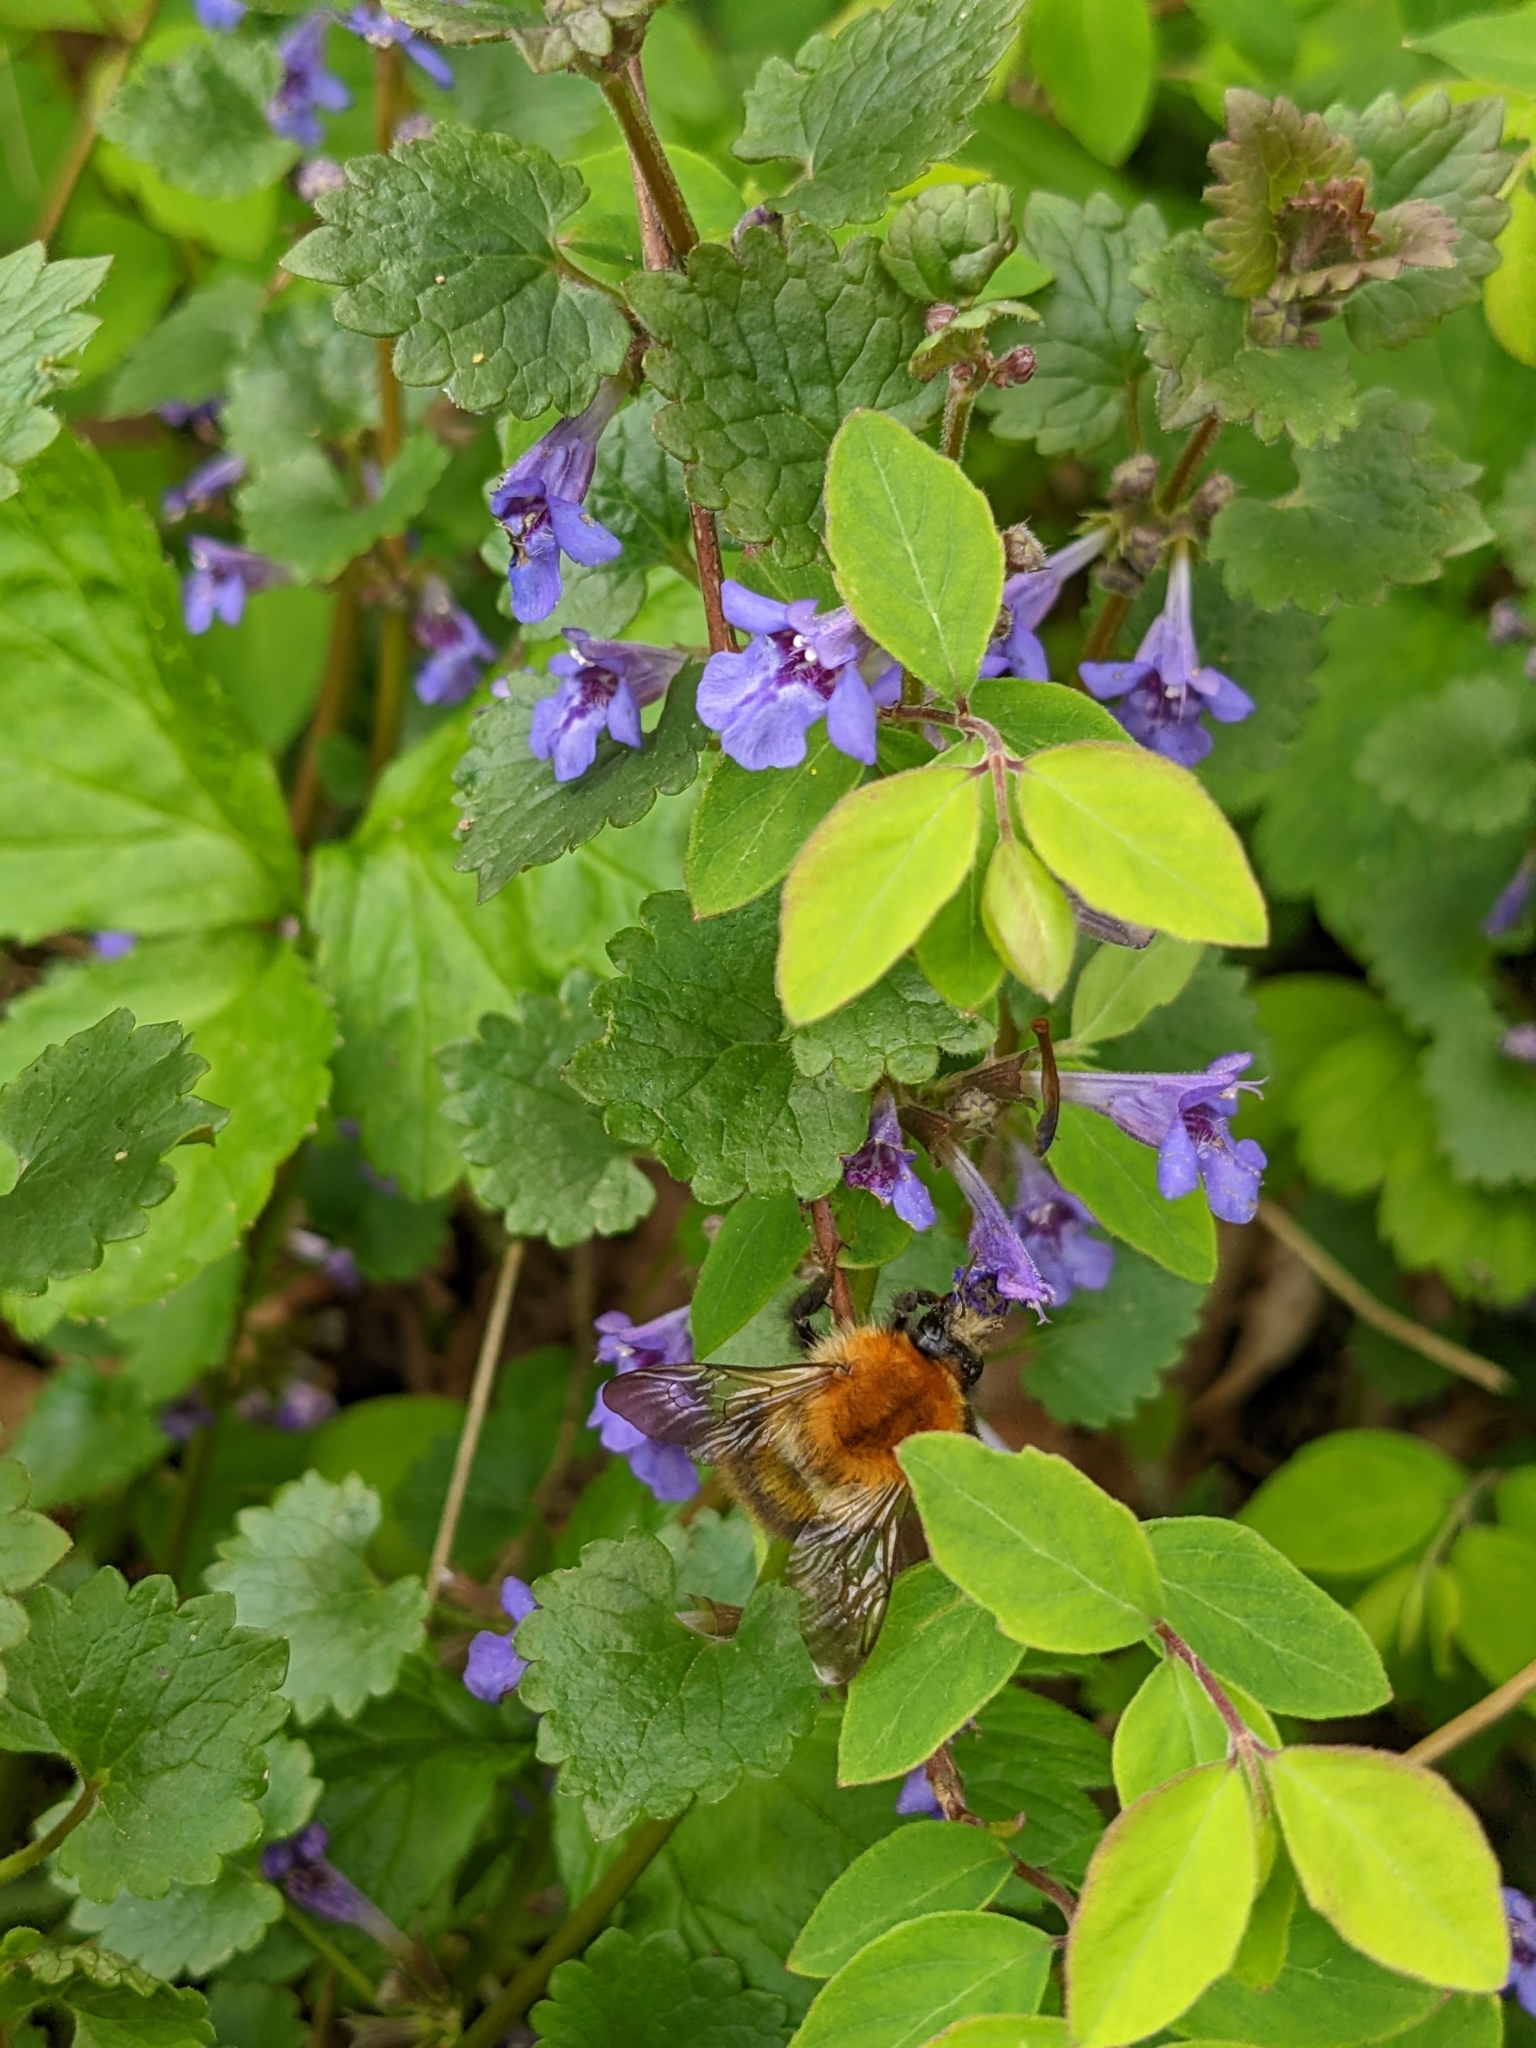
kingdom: Animalia
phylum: Arthropoda
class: Insecta
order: Hymenoptera
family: Apidae
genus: Bombus
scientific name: Bombus pascuorum
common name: Common carder bee
